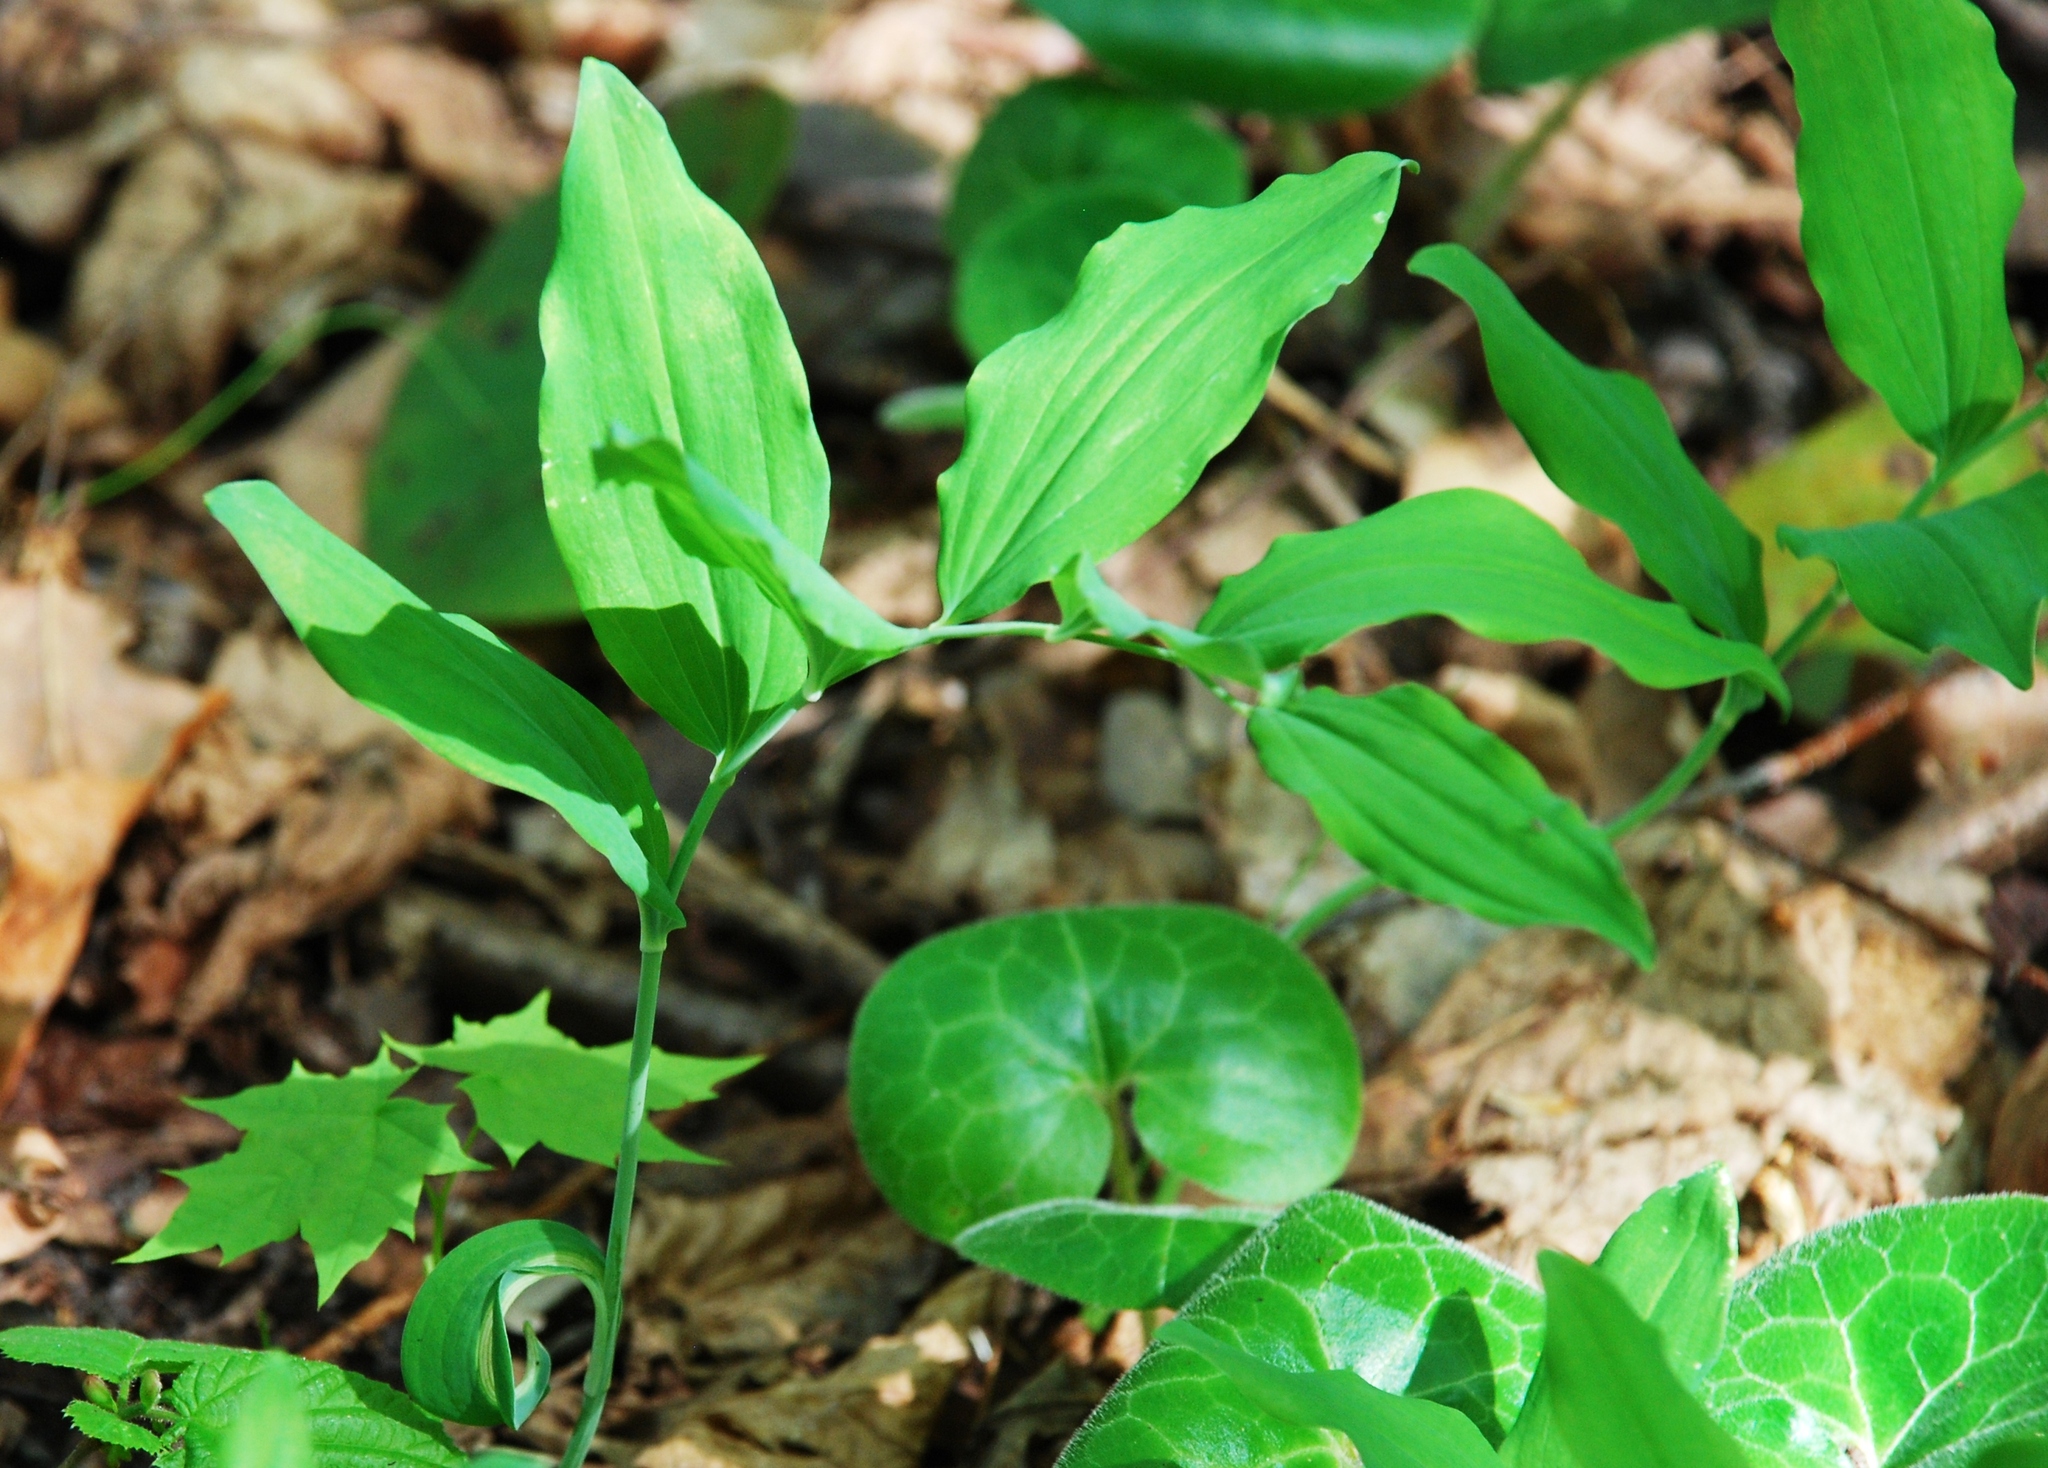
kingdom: Plantae
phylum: Tracheophyta
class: Liliopsida
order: Asparagales
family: Asparagaceae
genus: Polygonatum
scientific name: Polygonatum multiflorum
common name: Solomon's-seal
